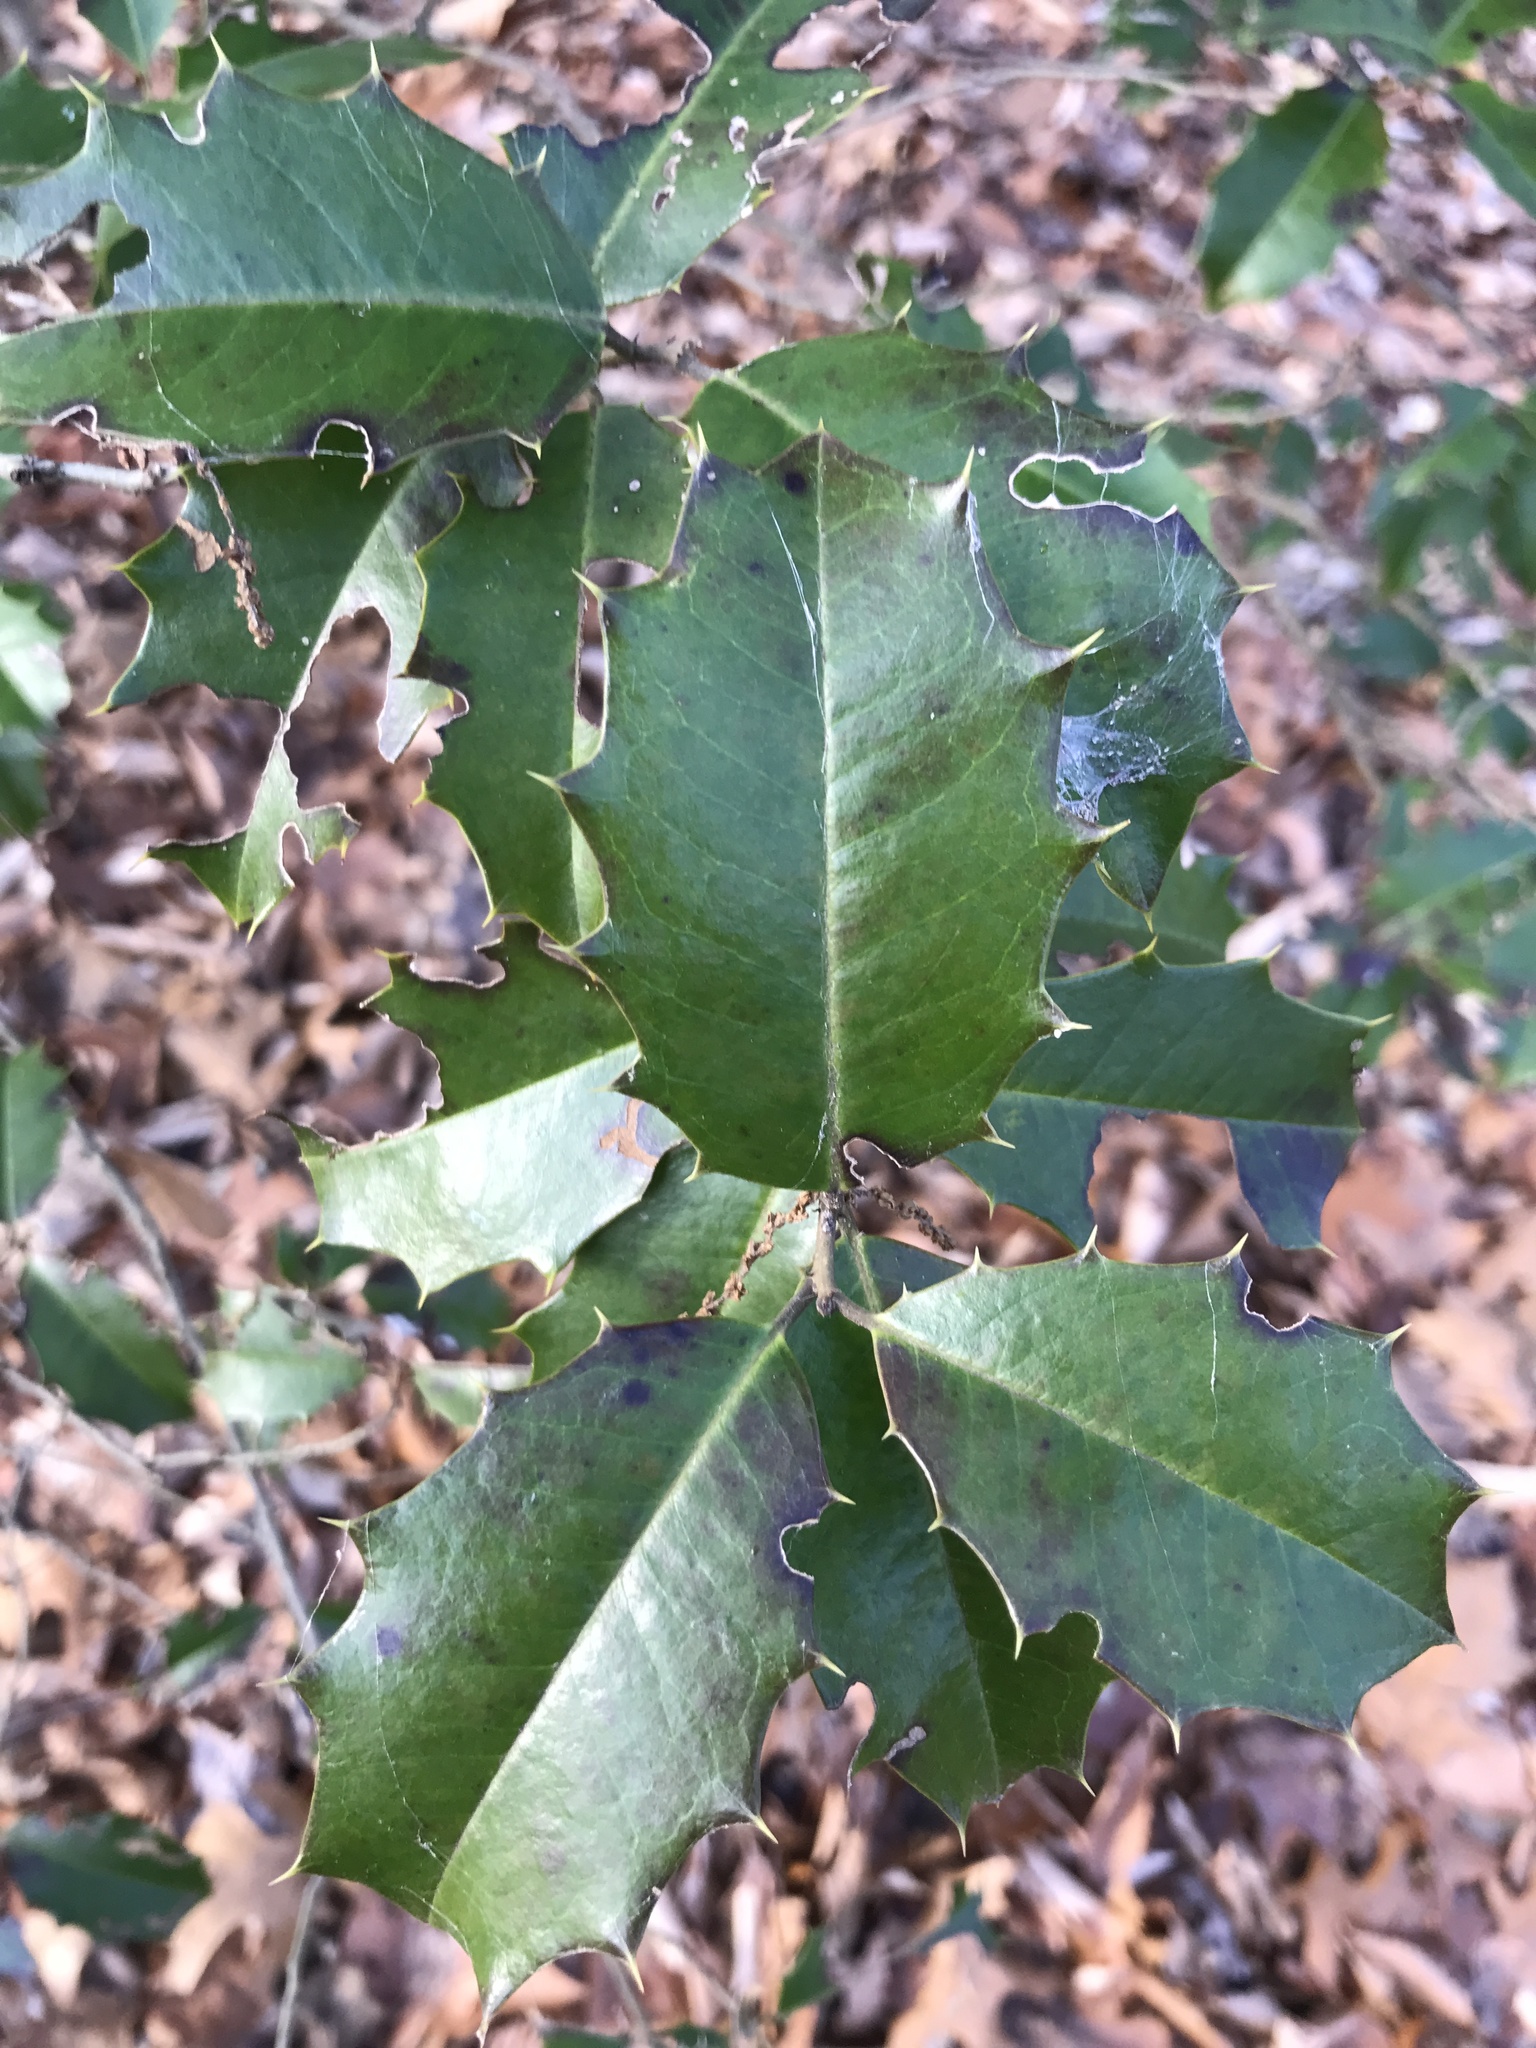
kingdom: Plantae
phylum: Tracheophyta
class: Magnoliopsida
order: Aquifoliales
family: Aquifoliaceae
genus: Ilex
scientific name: Ilex opaca
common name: American holly
